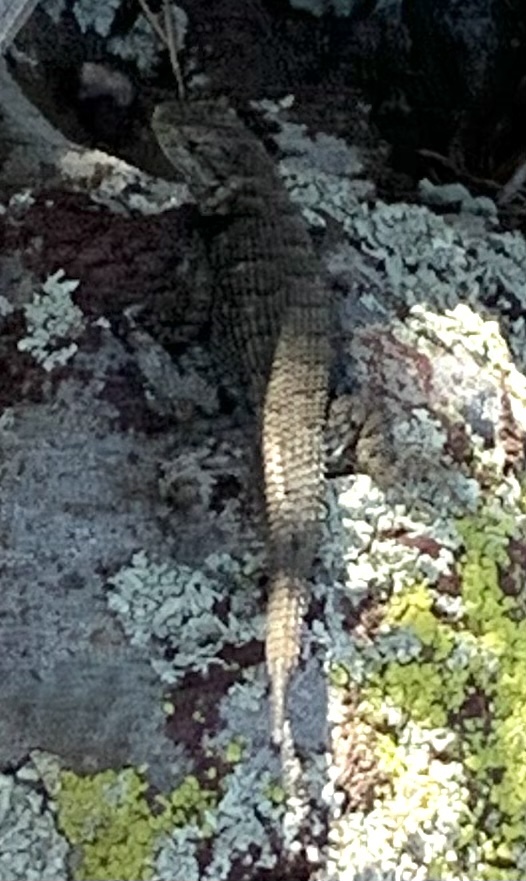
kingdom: Animalia
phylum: Chordata
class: Squamata
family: Phrynosomatidae
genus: Sceloporus
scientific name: Sceloporus consobrinus
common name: Southern prairie lizard
